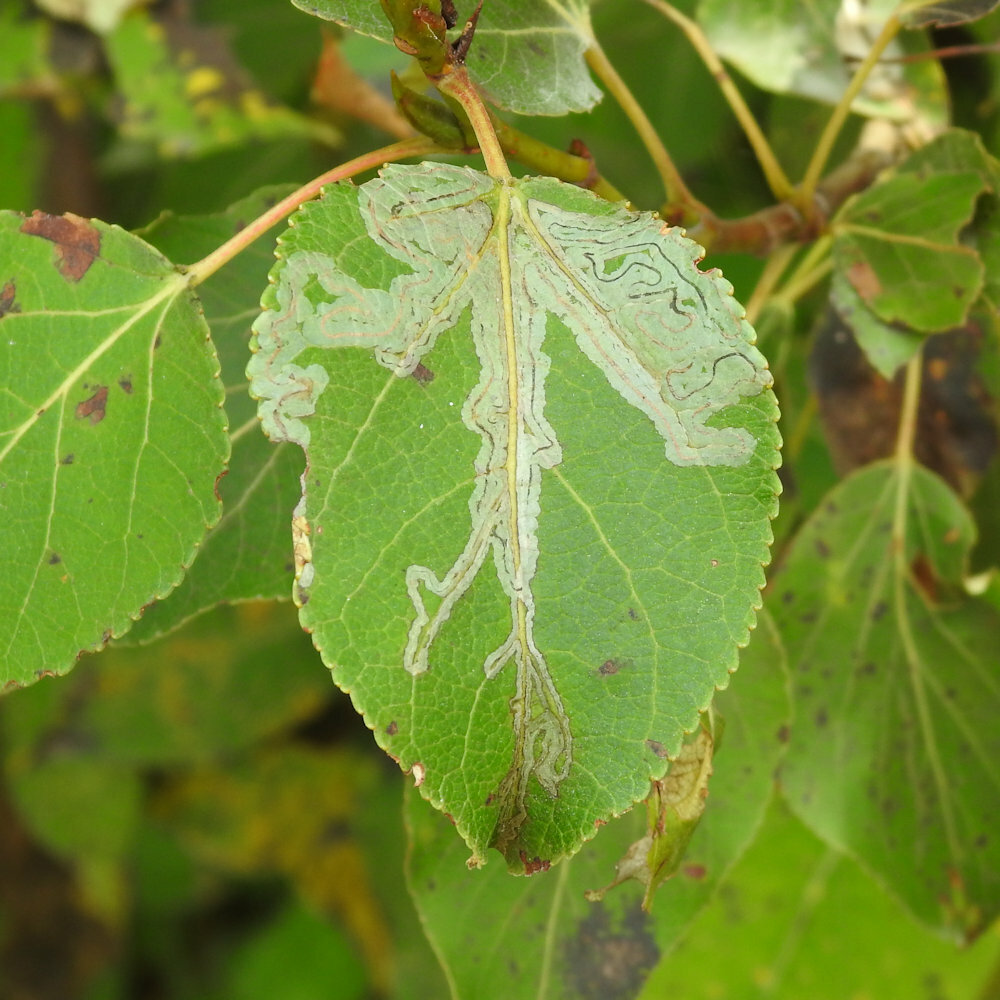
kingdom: Animalia
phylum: Arthropoda
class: Insecta
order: Lepidoptera
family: Gracillariidae
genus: Phyllocnistis
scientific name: Phyllocnistis populiella
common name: Aspen serpentine leafminer moth
